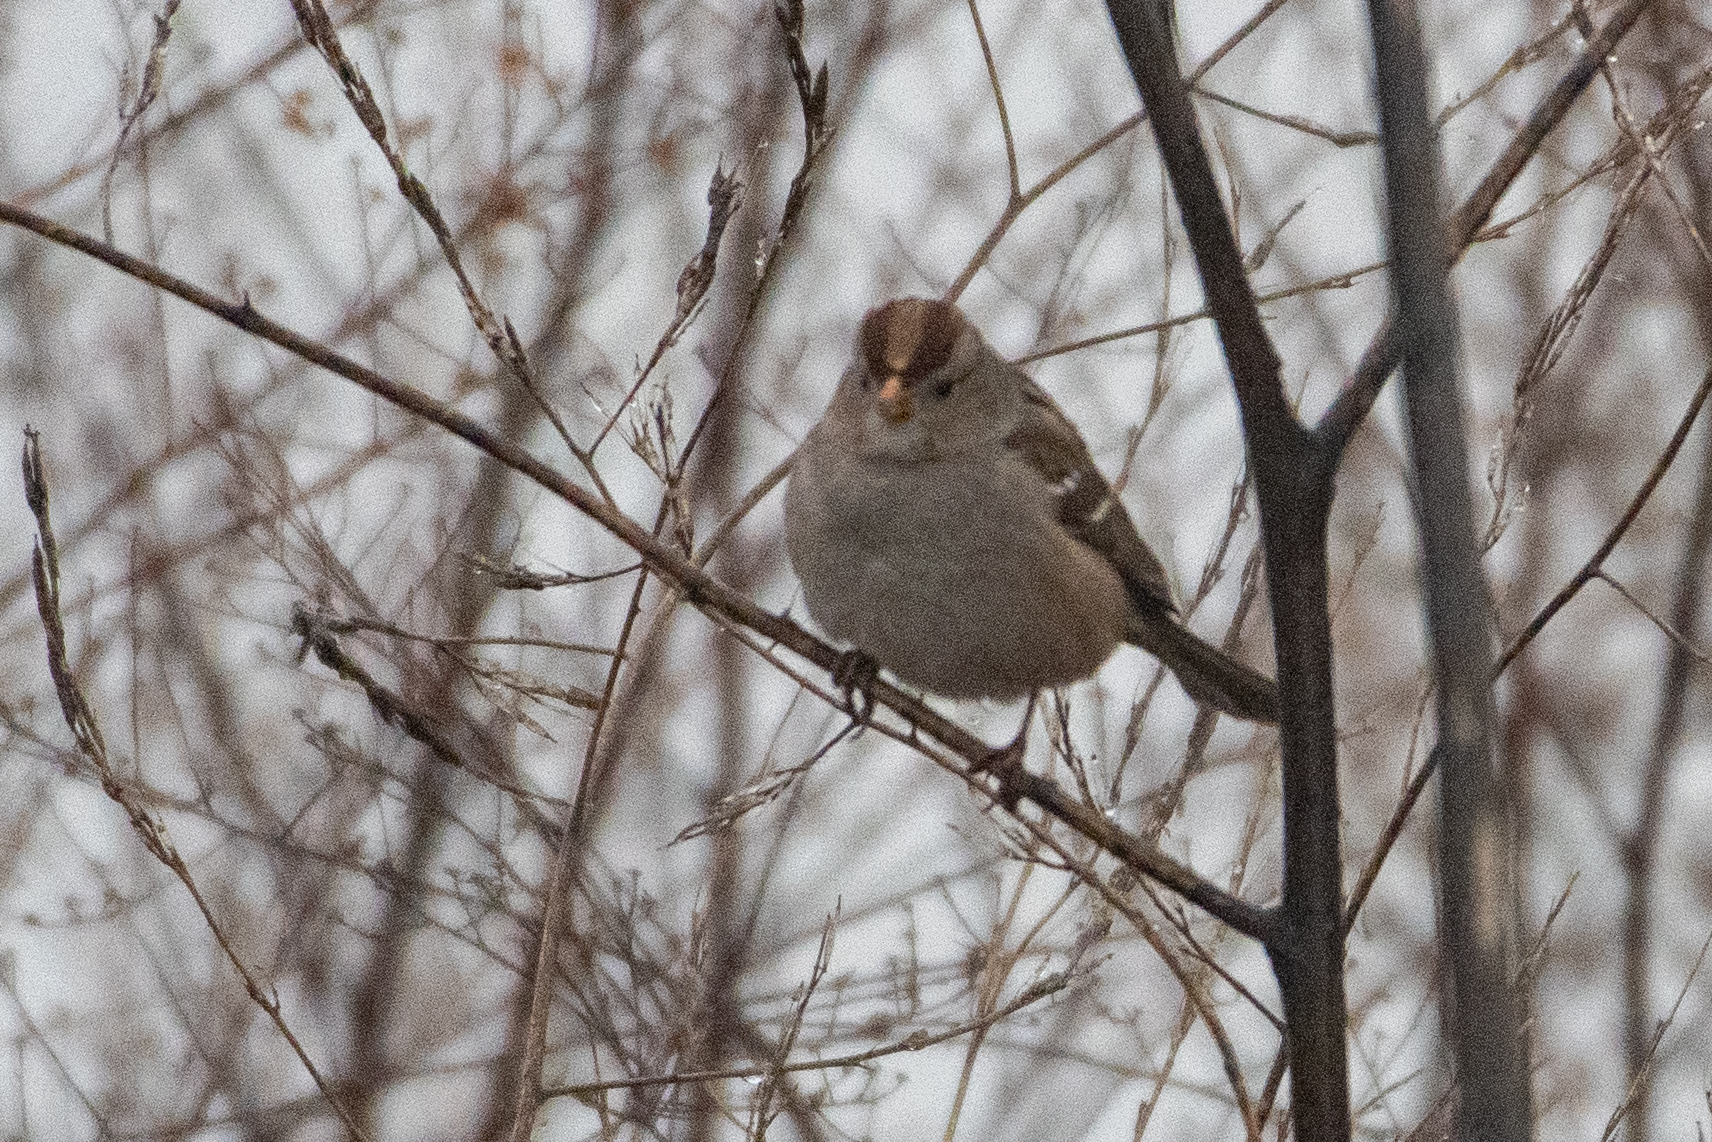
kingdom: Animalia
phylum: Chordata
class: Aves
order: Passeriformes
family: Passerellidae
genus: Zonotrichia
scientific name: Zonotrichia leucophrys
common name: White-crowned sparrow
